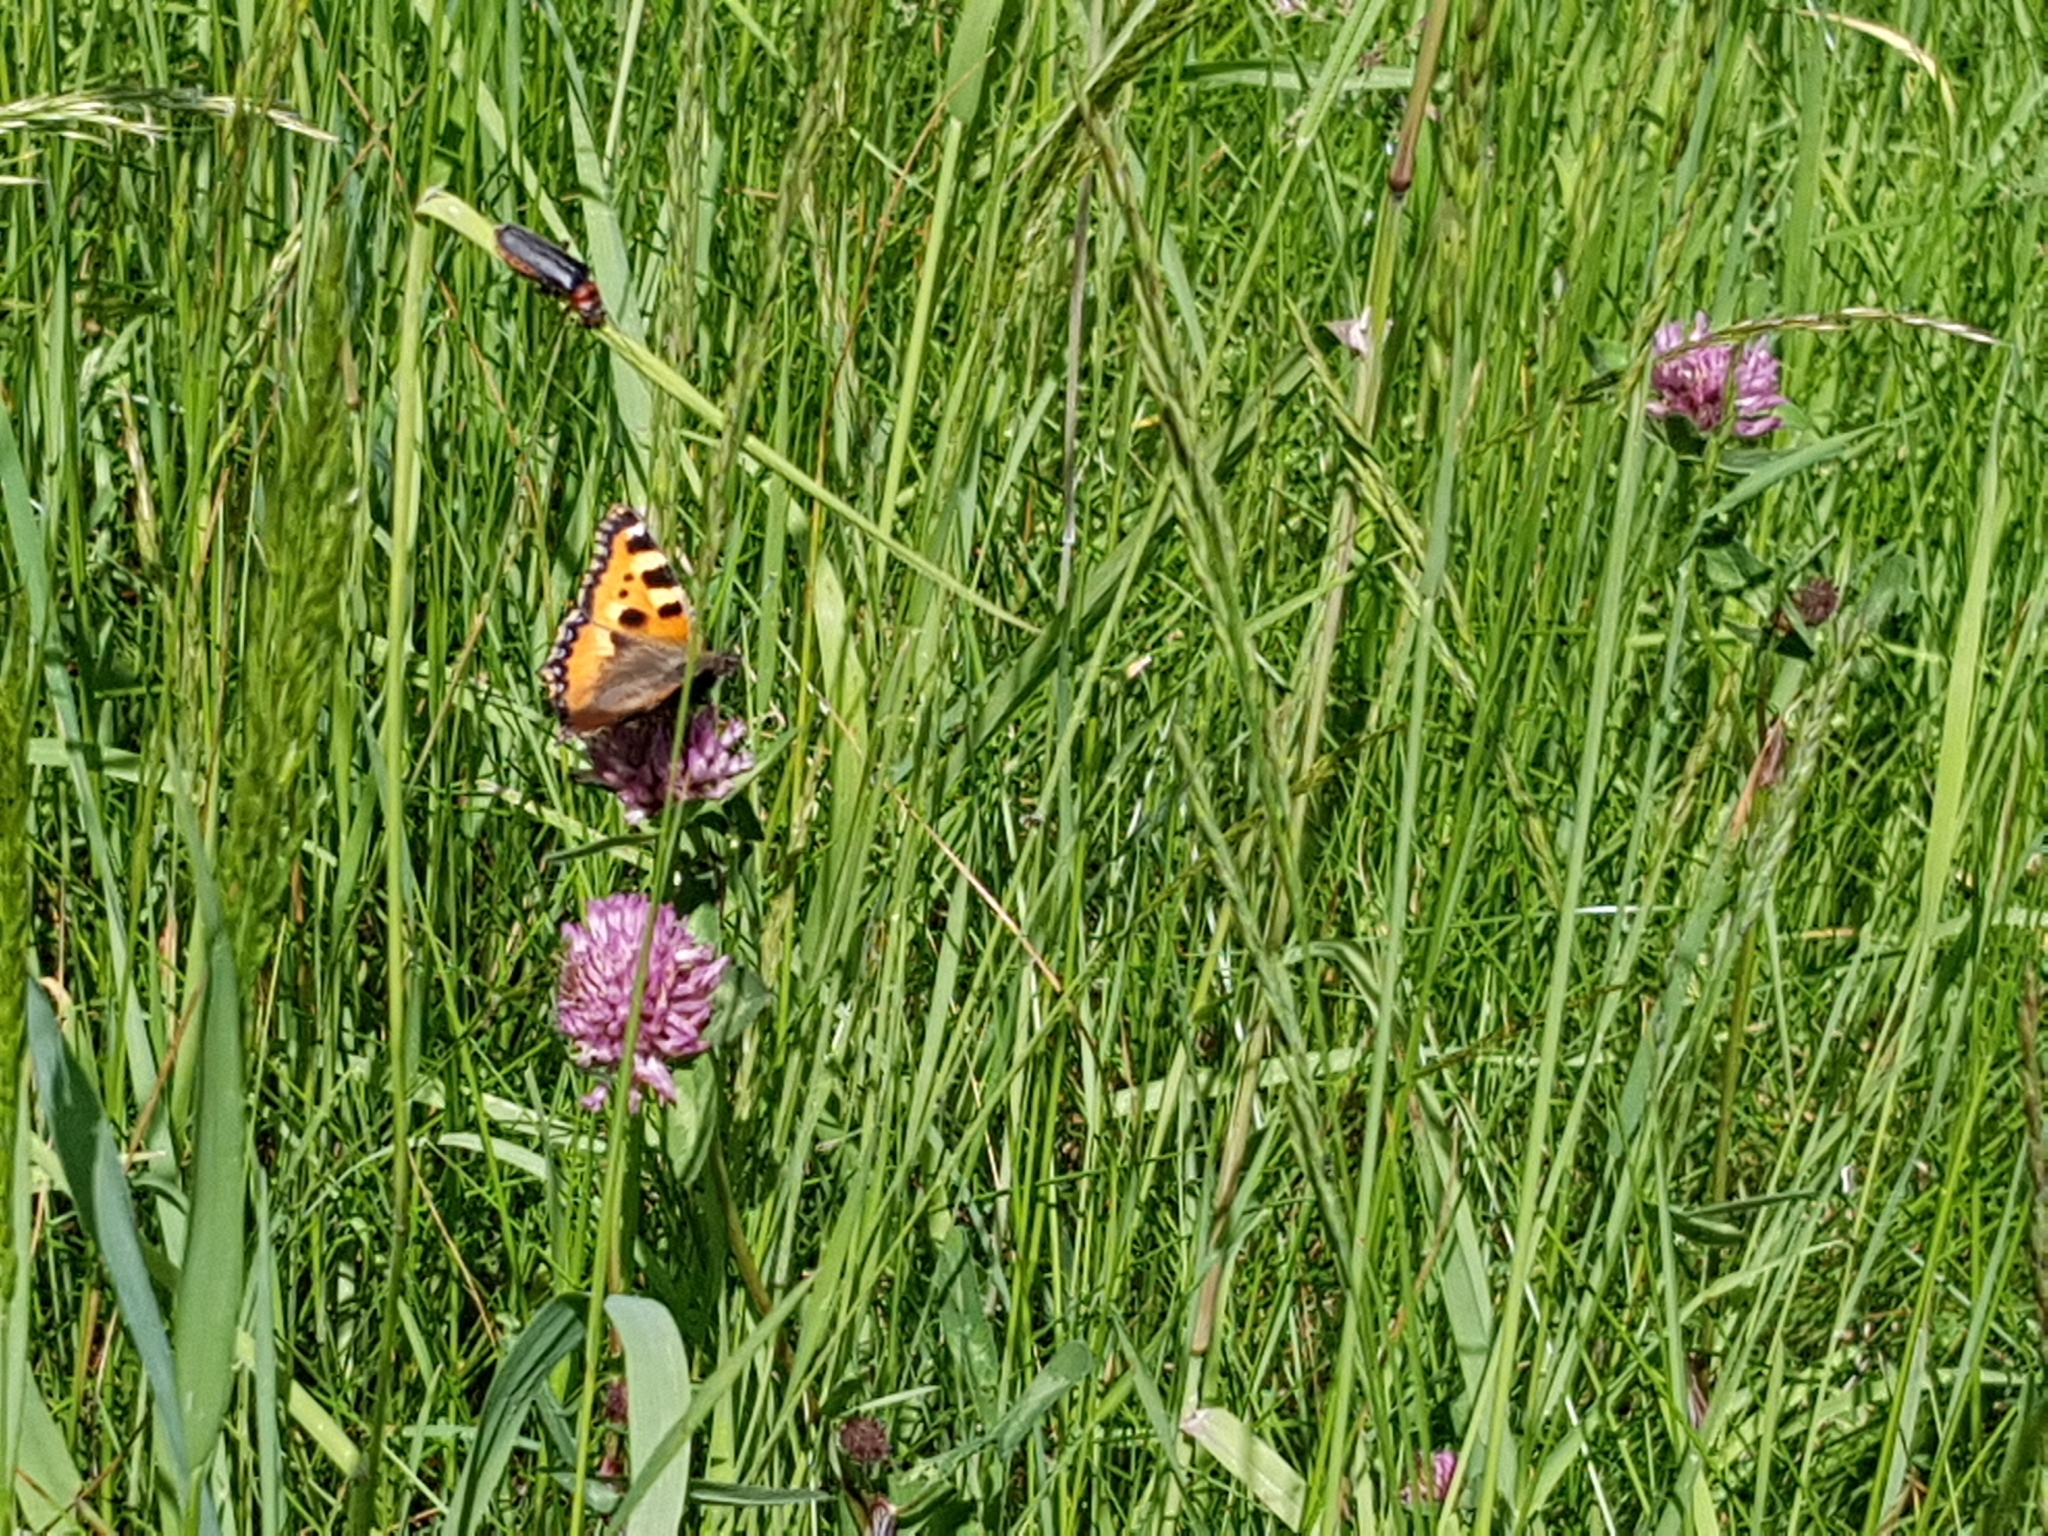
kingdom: Animalia
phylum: Arthropoda
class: Insecta
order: Lepidoptera
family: Nymphalidae
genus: Aglais
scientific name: Aglais urticae
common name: Small tortoiseshell
